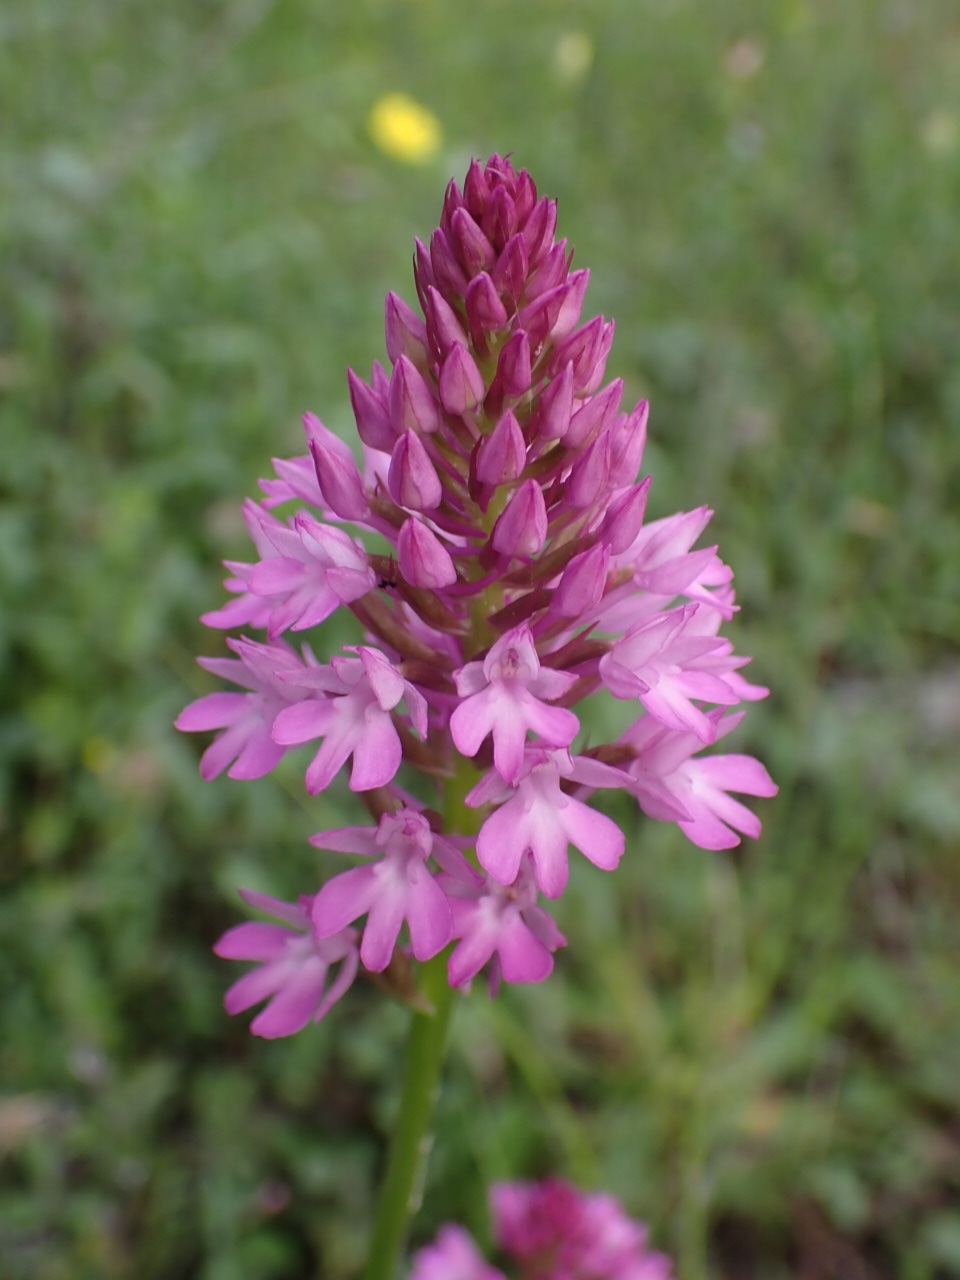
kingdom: Plantae
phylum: Tracheophyta
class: Liliopsida
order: Asparagales
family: Orchidaceae
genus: Anacamptis
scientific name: Anacamptis pyramidalis
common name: Pyramidal orchid
